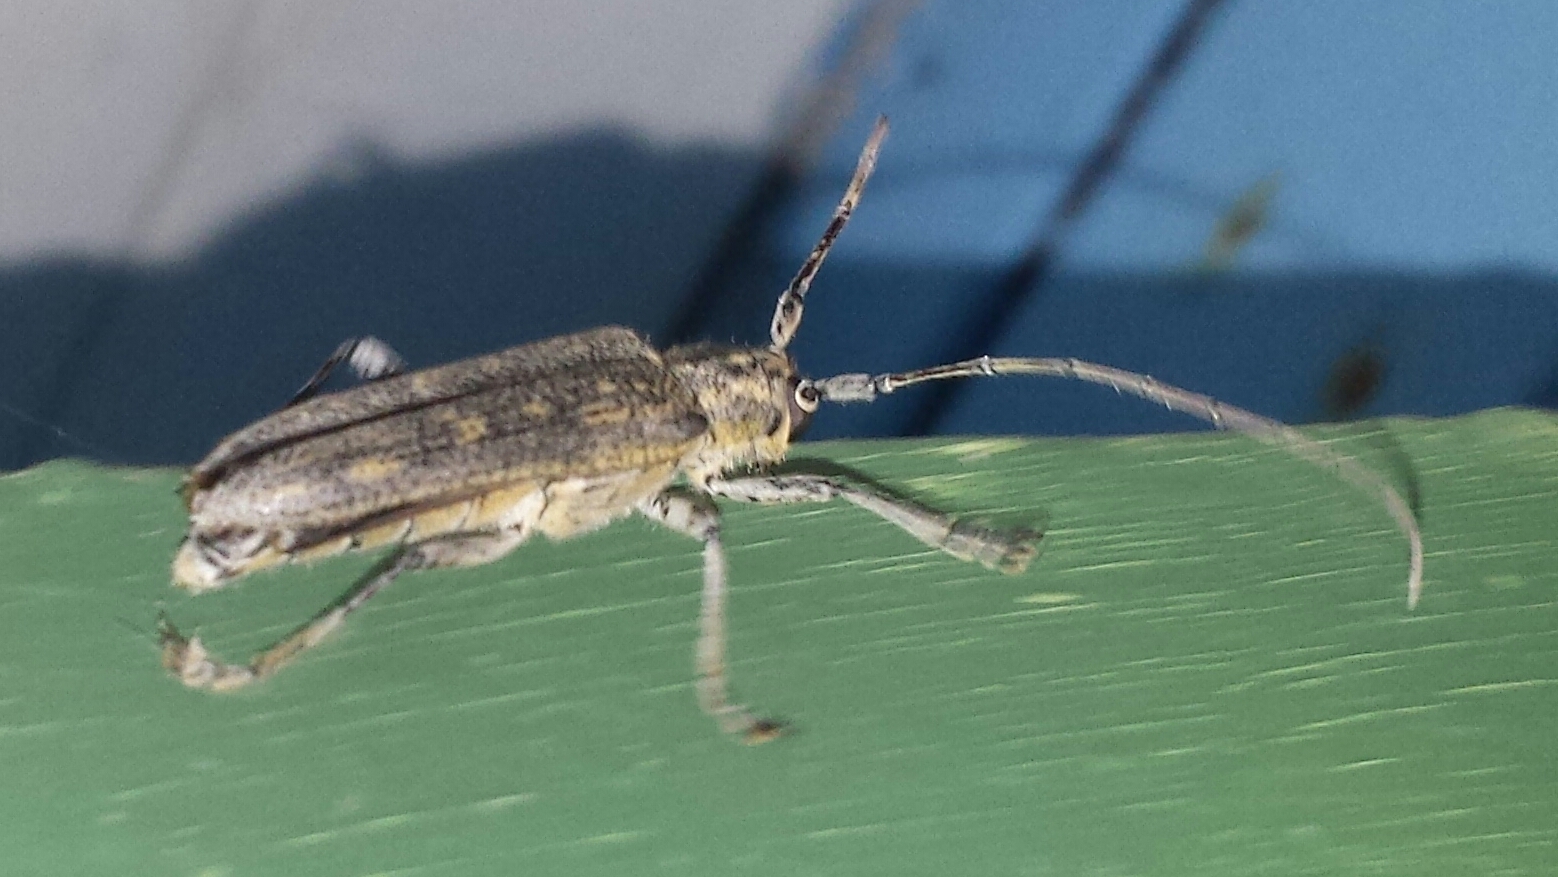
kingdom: Animalia
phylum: Arthropoda
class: Insecta
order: Coleoptera
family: Cerambycidae
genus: Saperda
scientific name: Saperda calcarata
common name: Poplar borer
